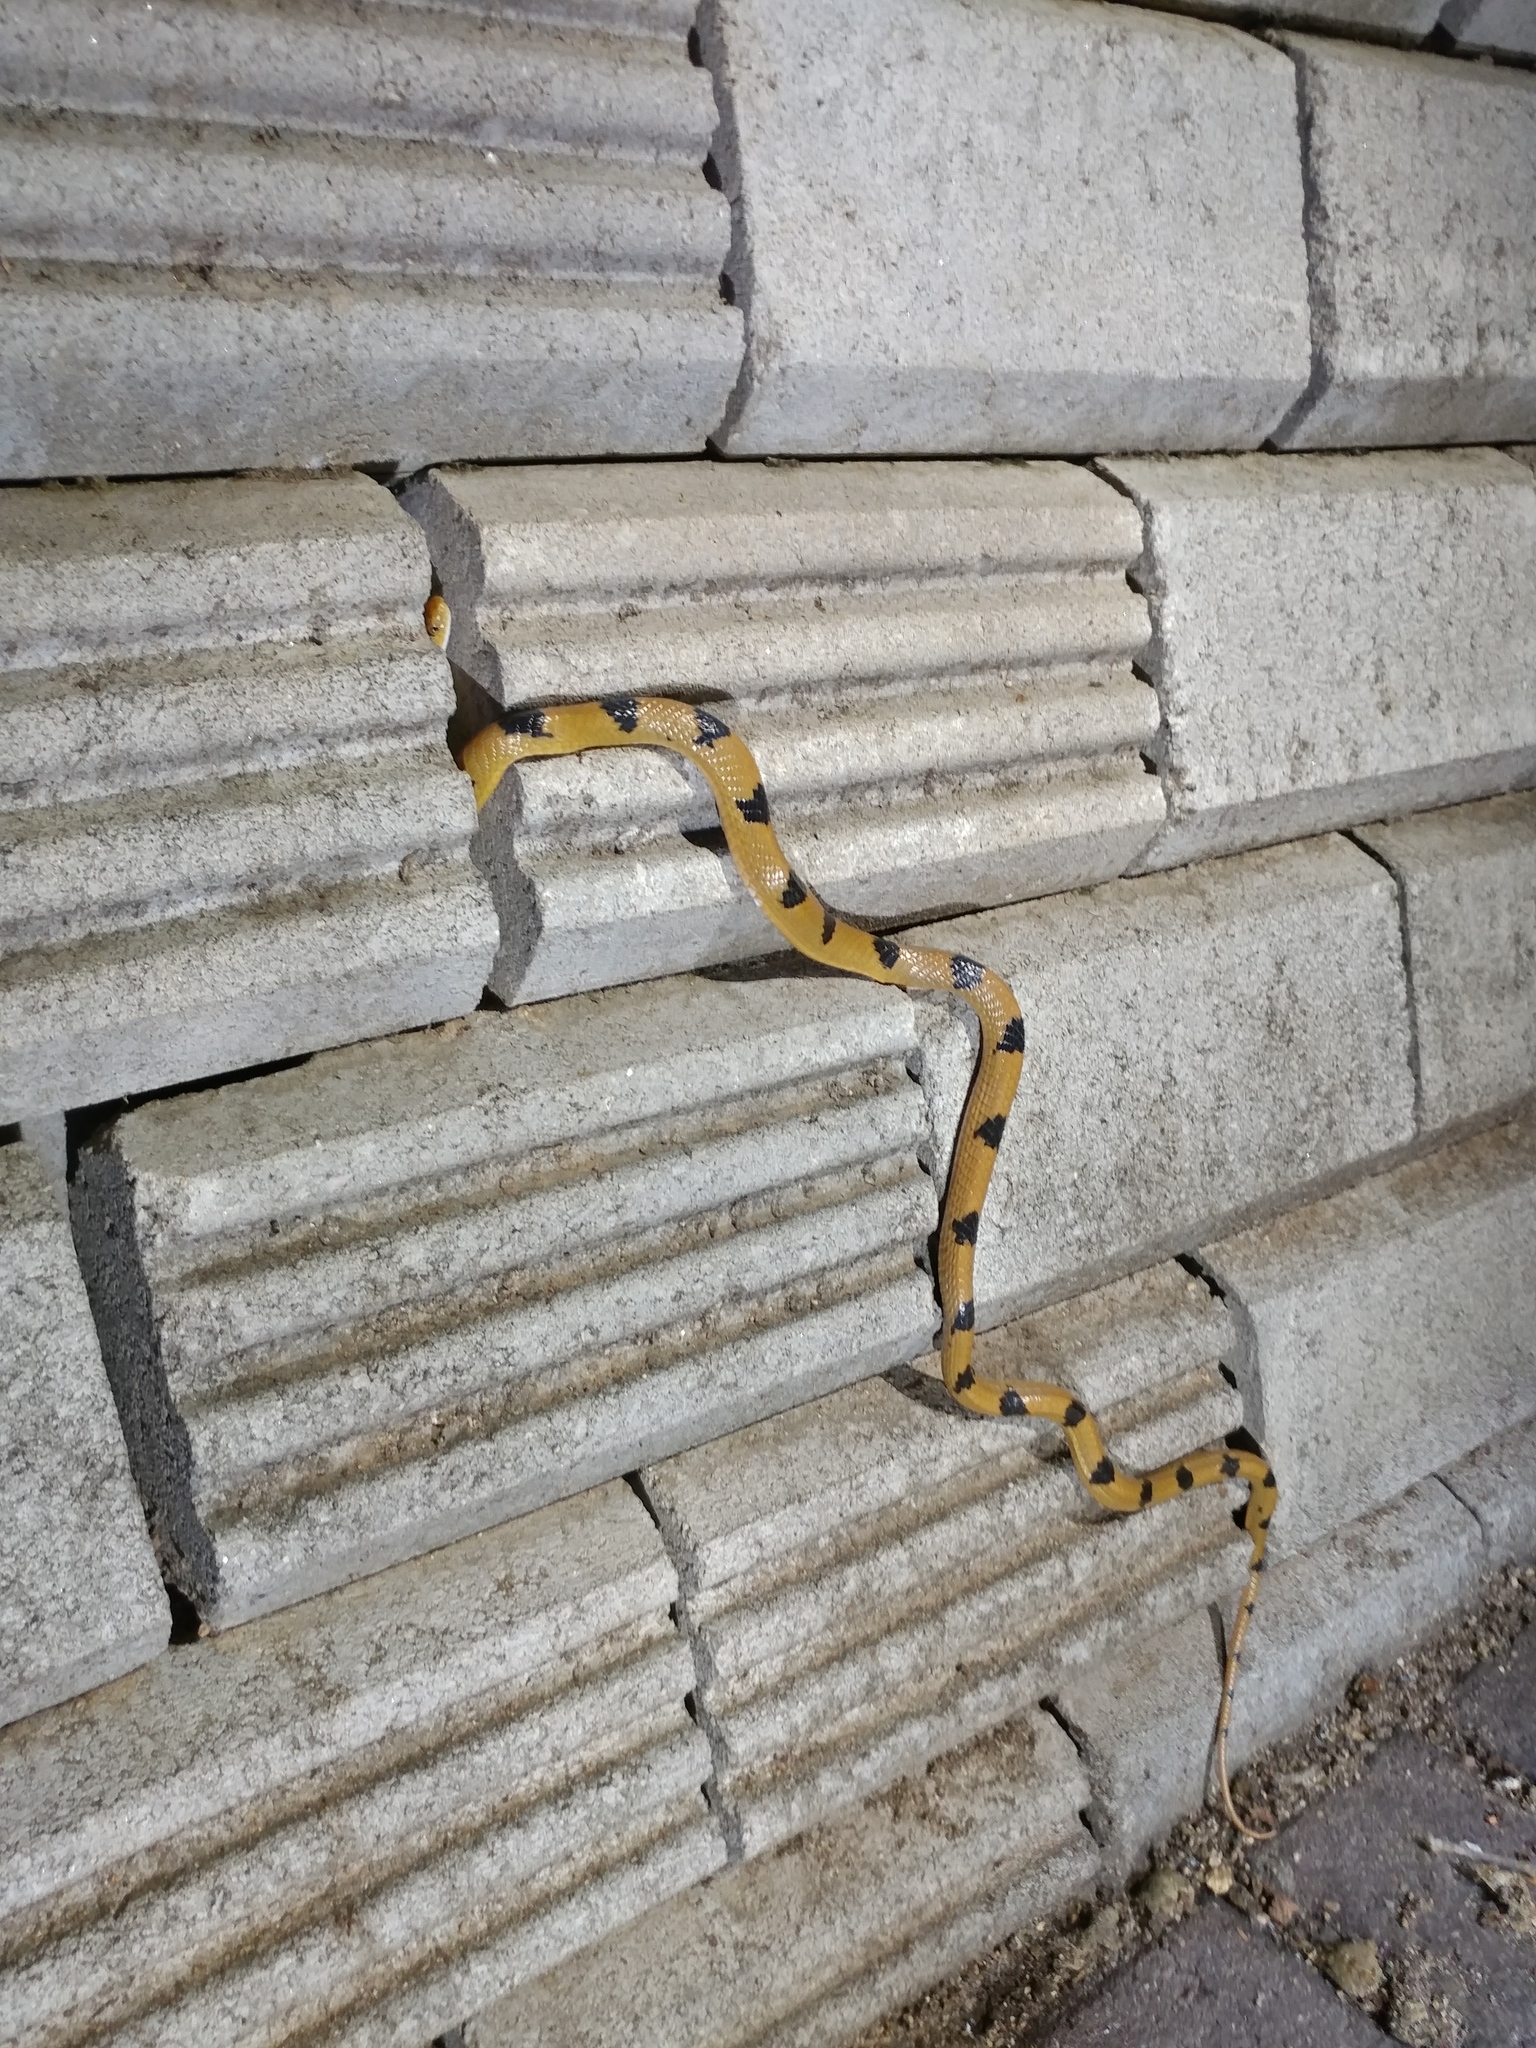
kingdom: Animalia
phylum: Chordata
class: Squamata
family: Colubridae
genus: Telescopus
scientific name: Telescopus semiannulatus
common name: Common tiger snake
